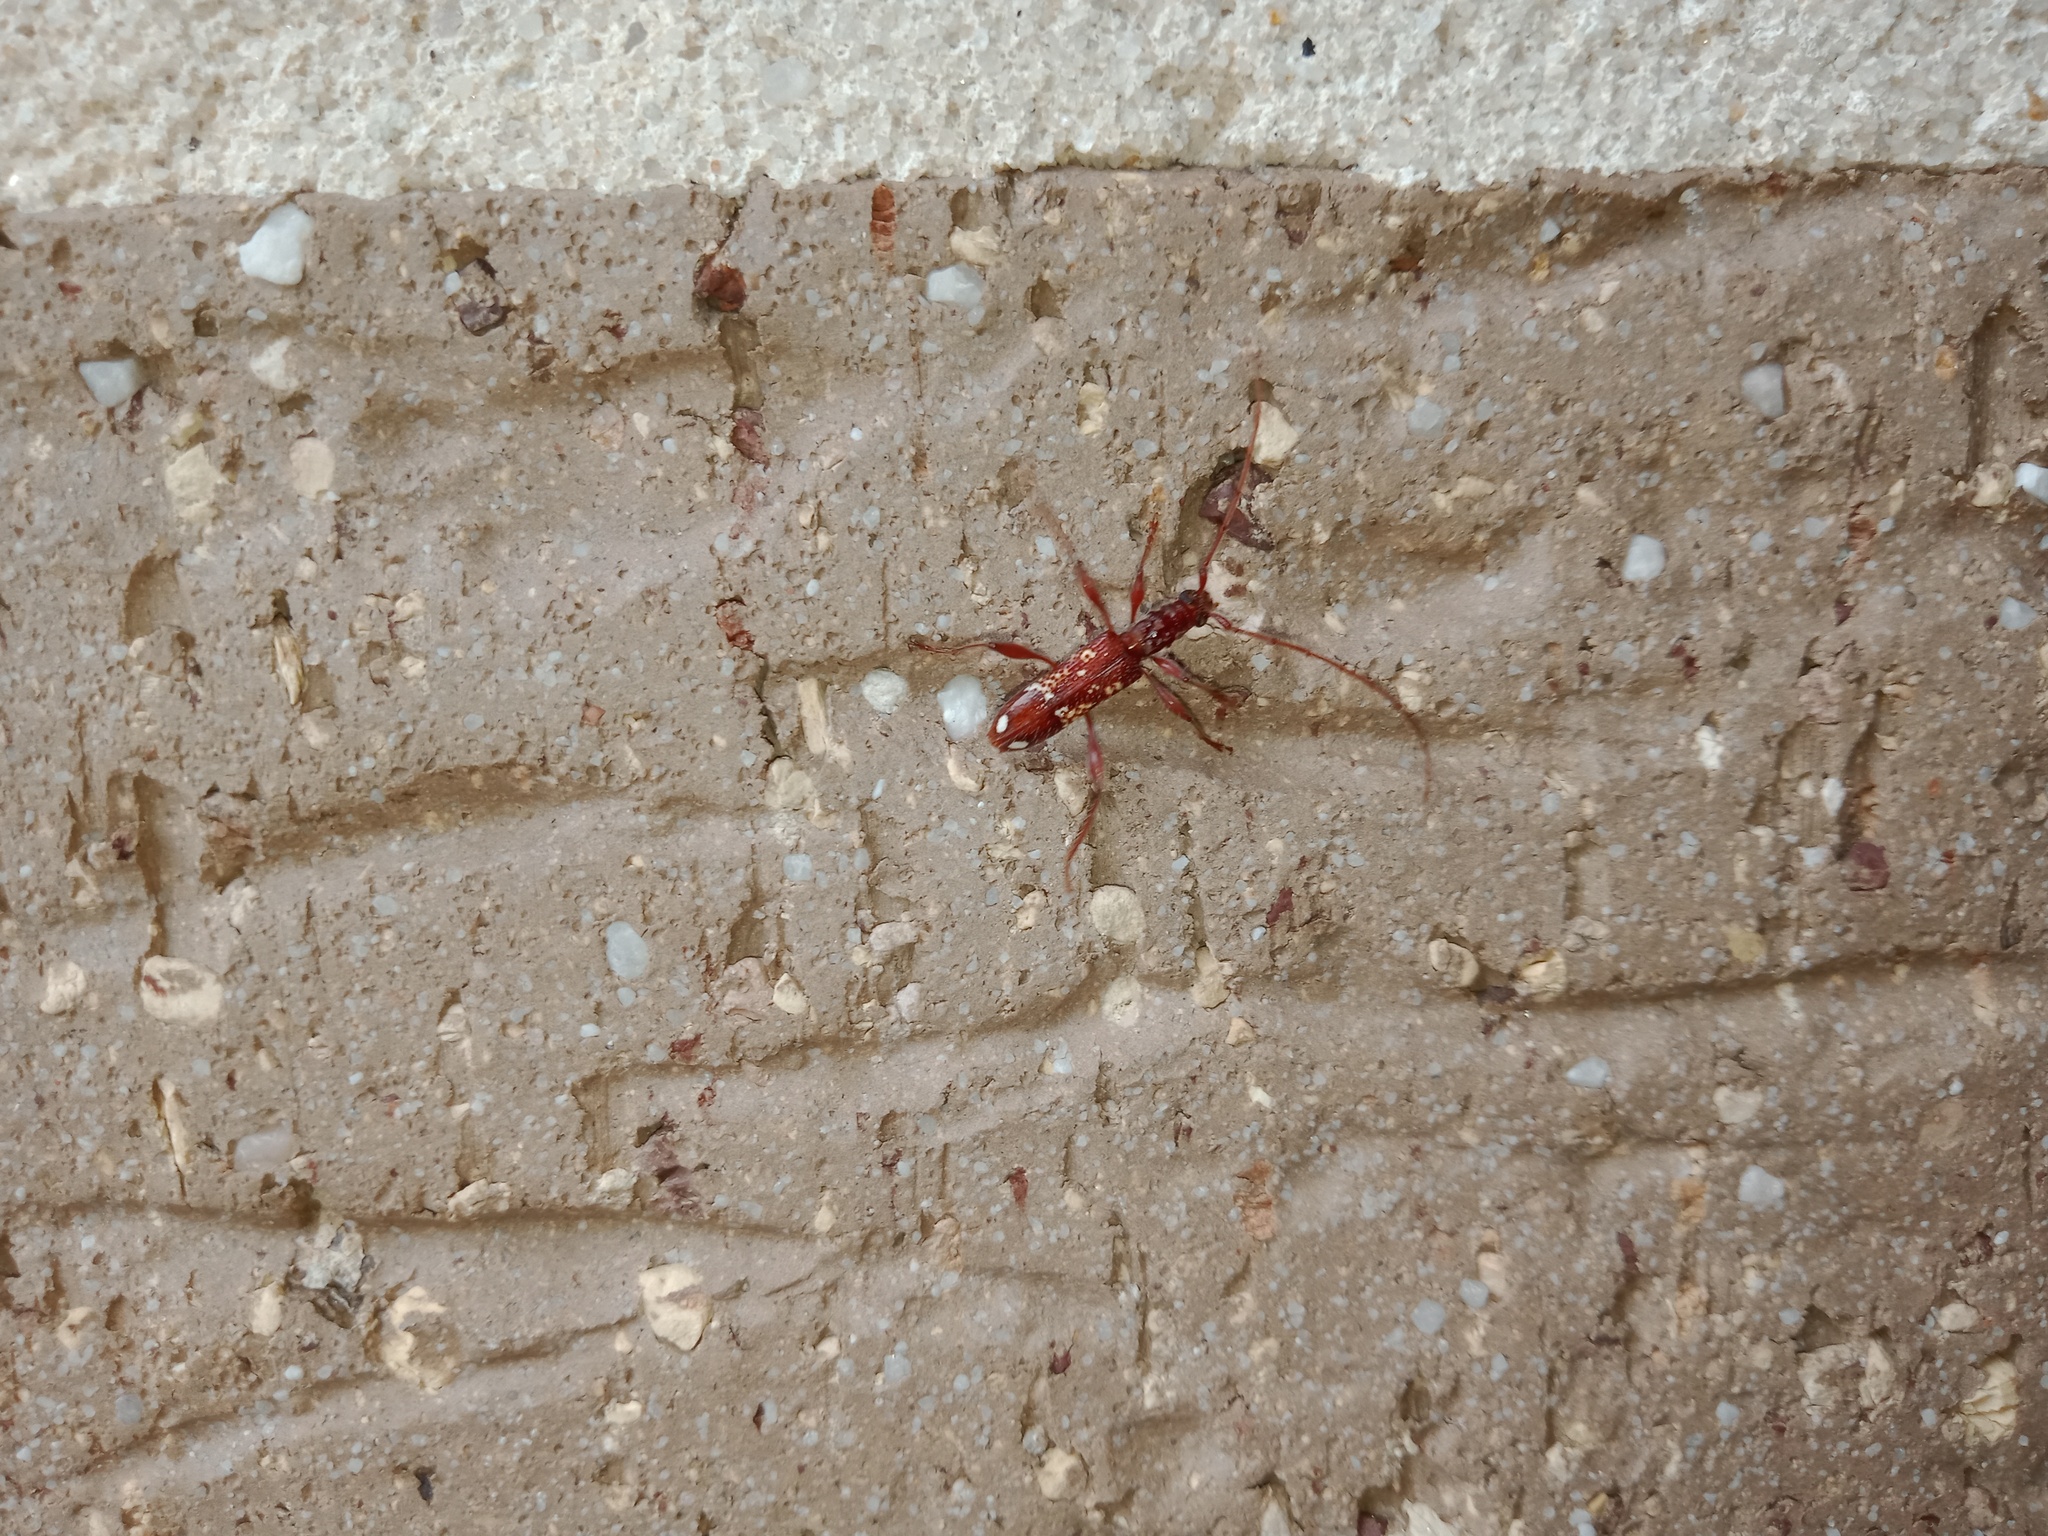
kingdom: Animalia
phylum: Arthropoda
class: Insecta
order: Coleoptera
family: Cerambycidae
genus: Coptocercus
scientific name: Coptocercus biguttatus
